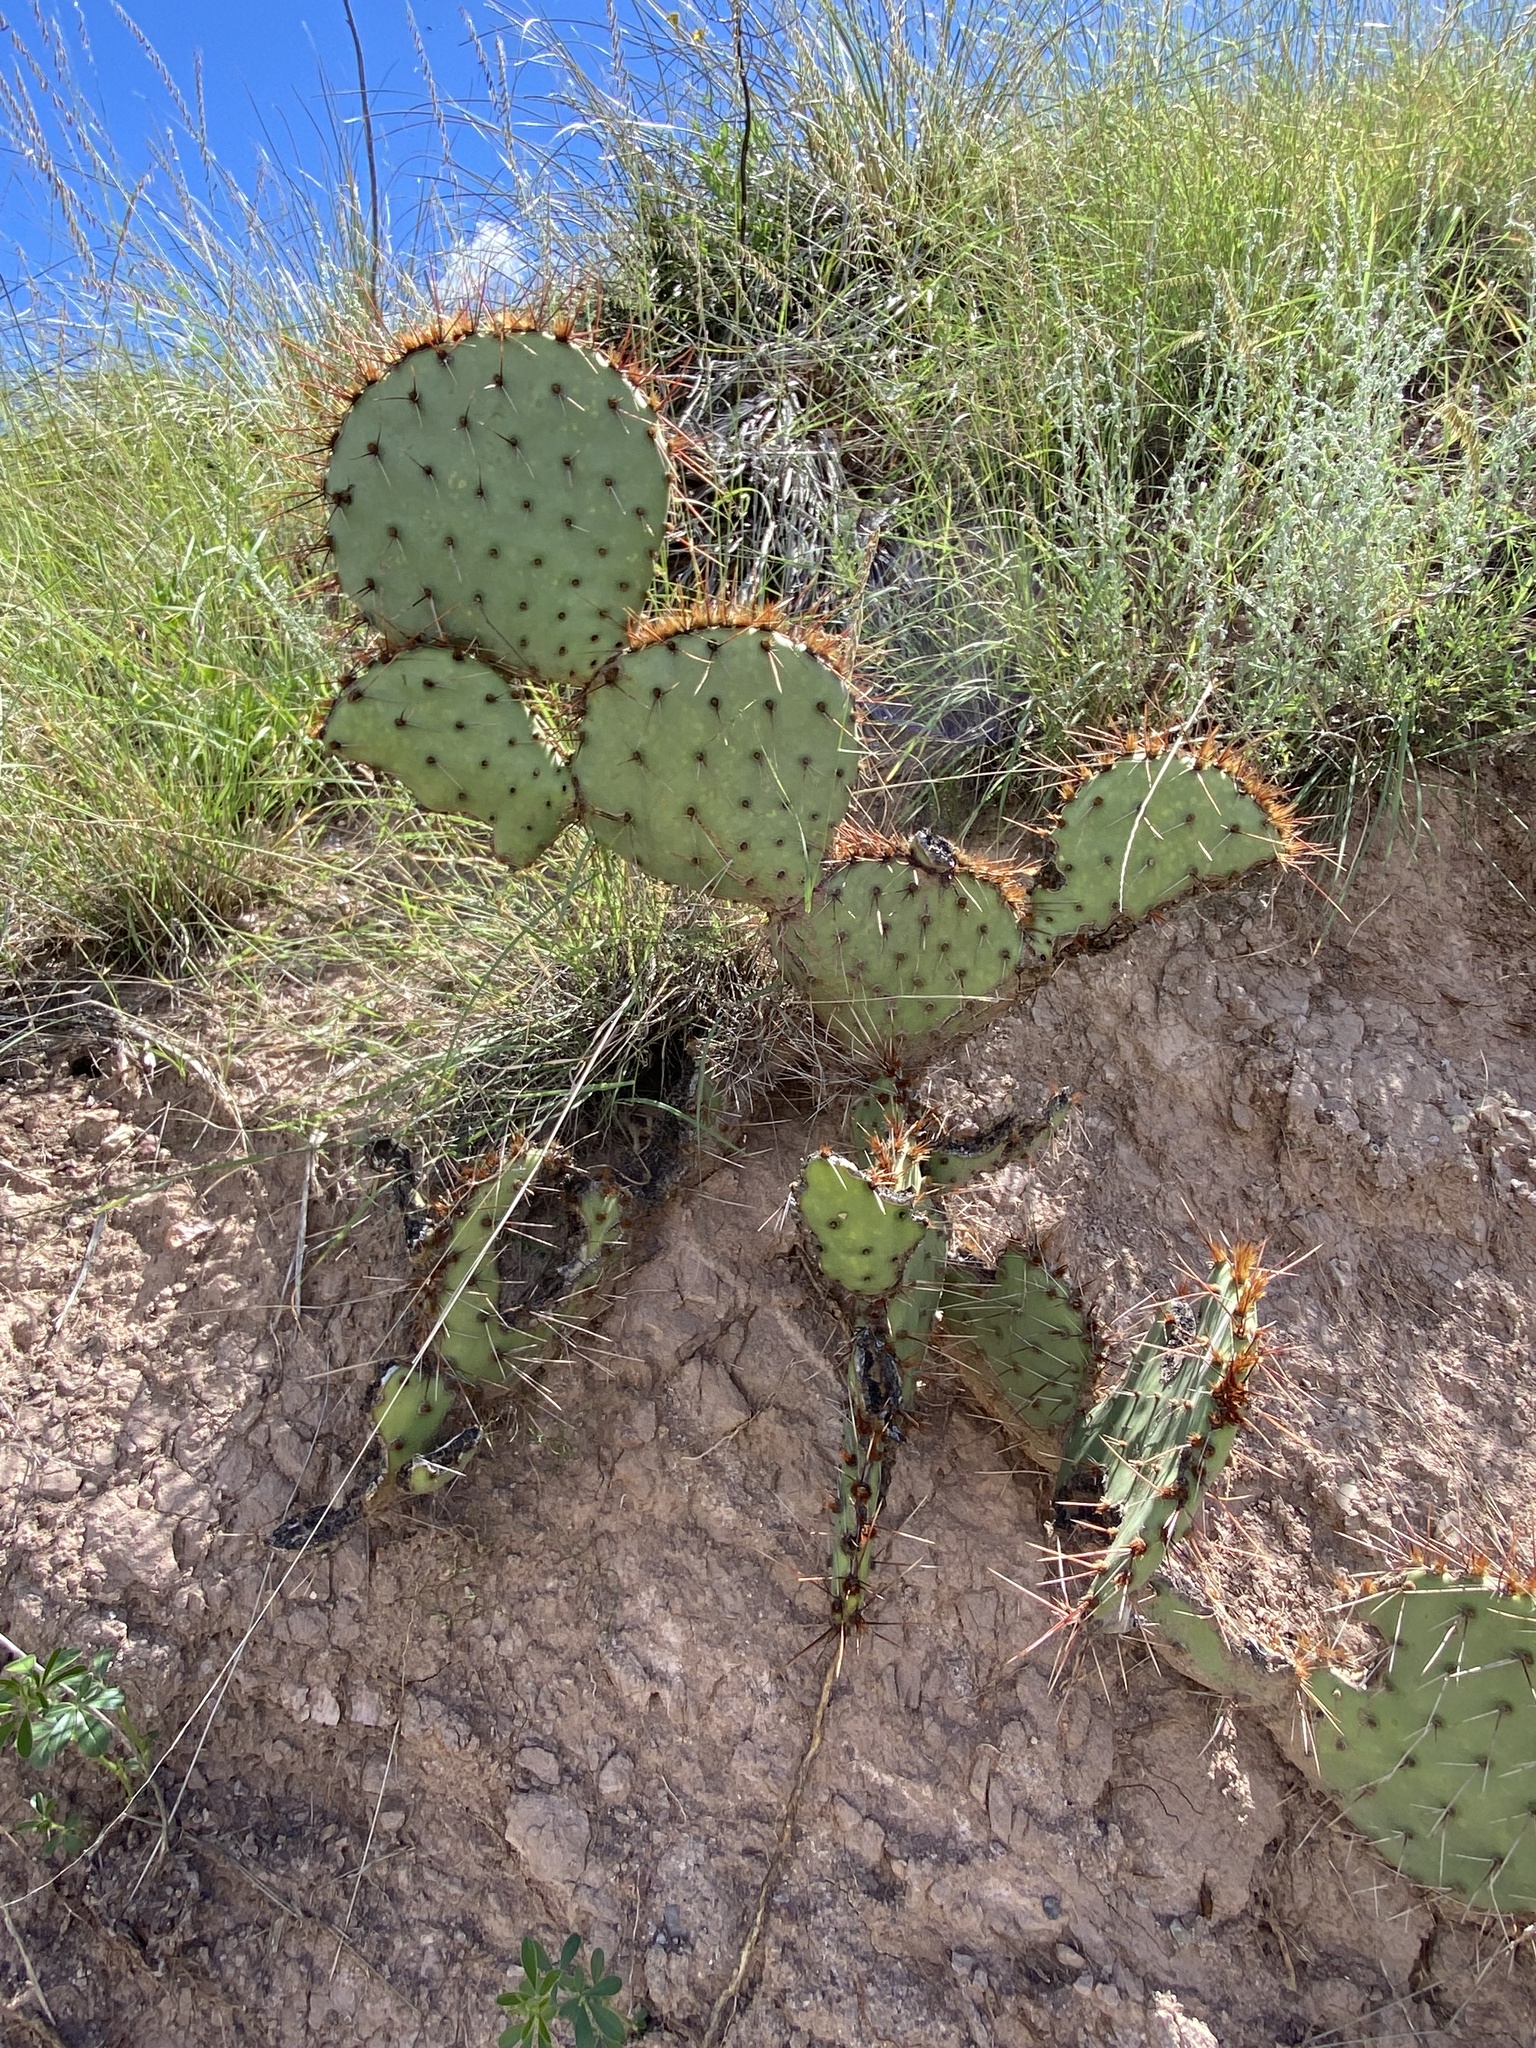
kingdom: Plantae
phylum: Tracheophyta
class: Magnoliopsida
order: Caryophyllales
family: Cactaceae
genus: Opuntia
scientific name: Opuntia engelmannii
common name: Cactus-apple
